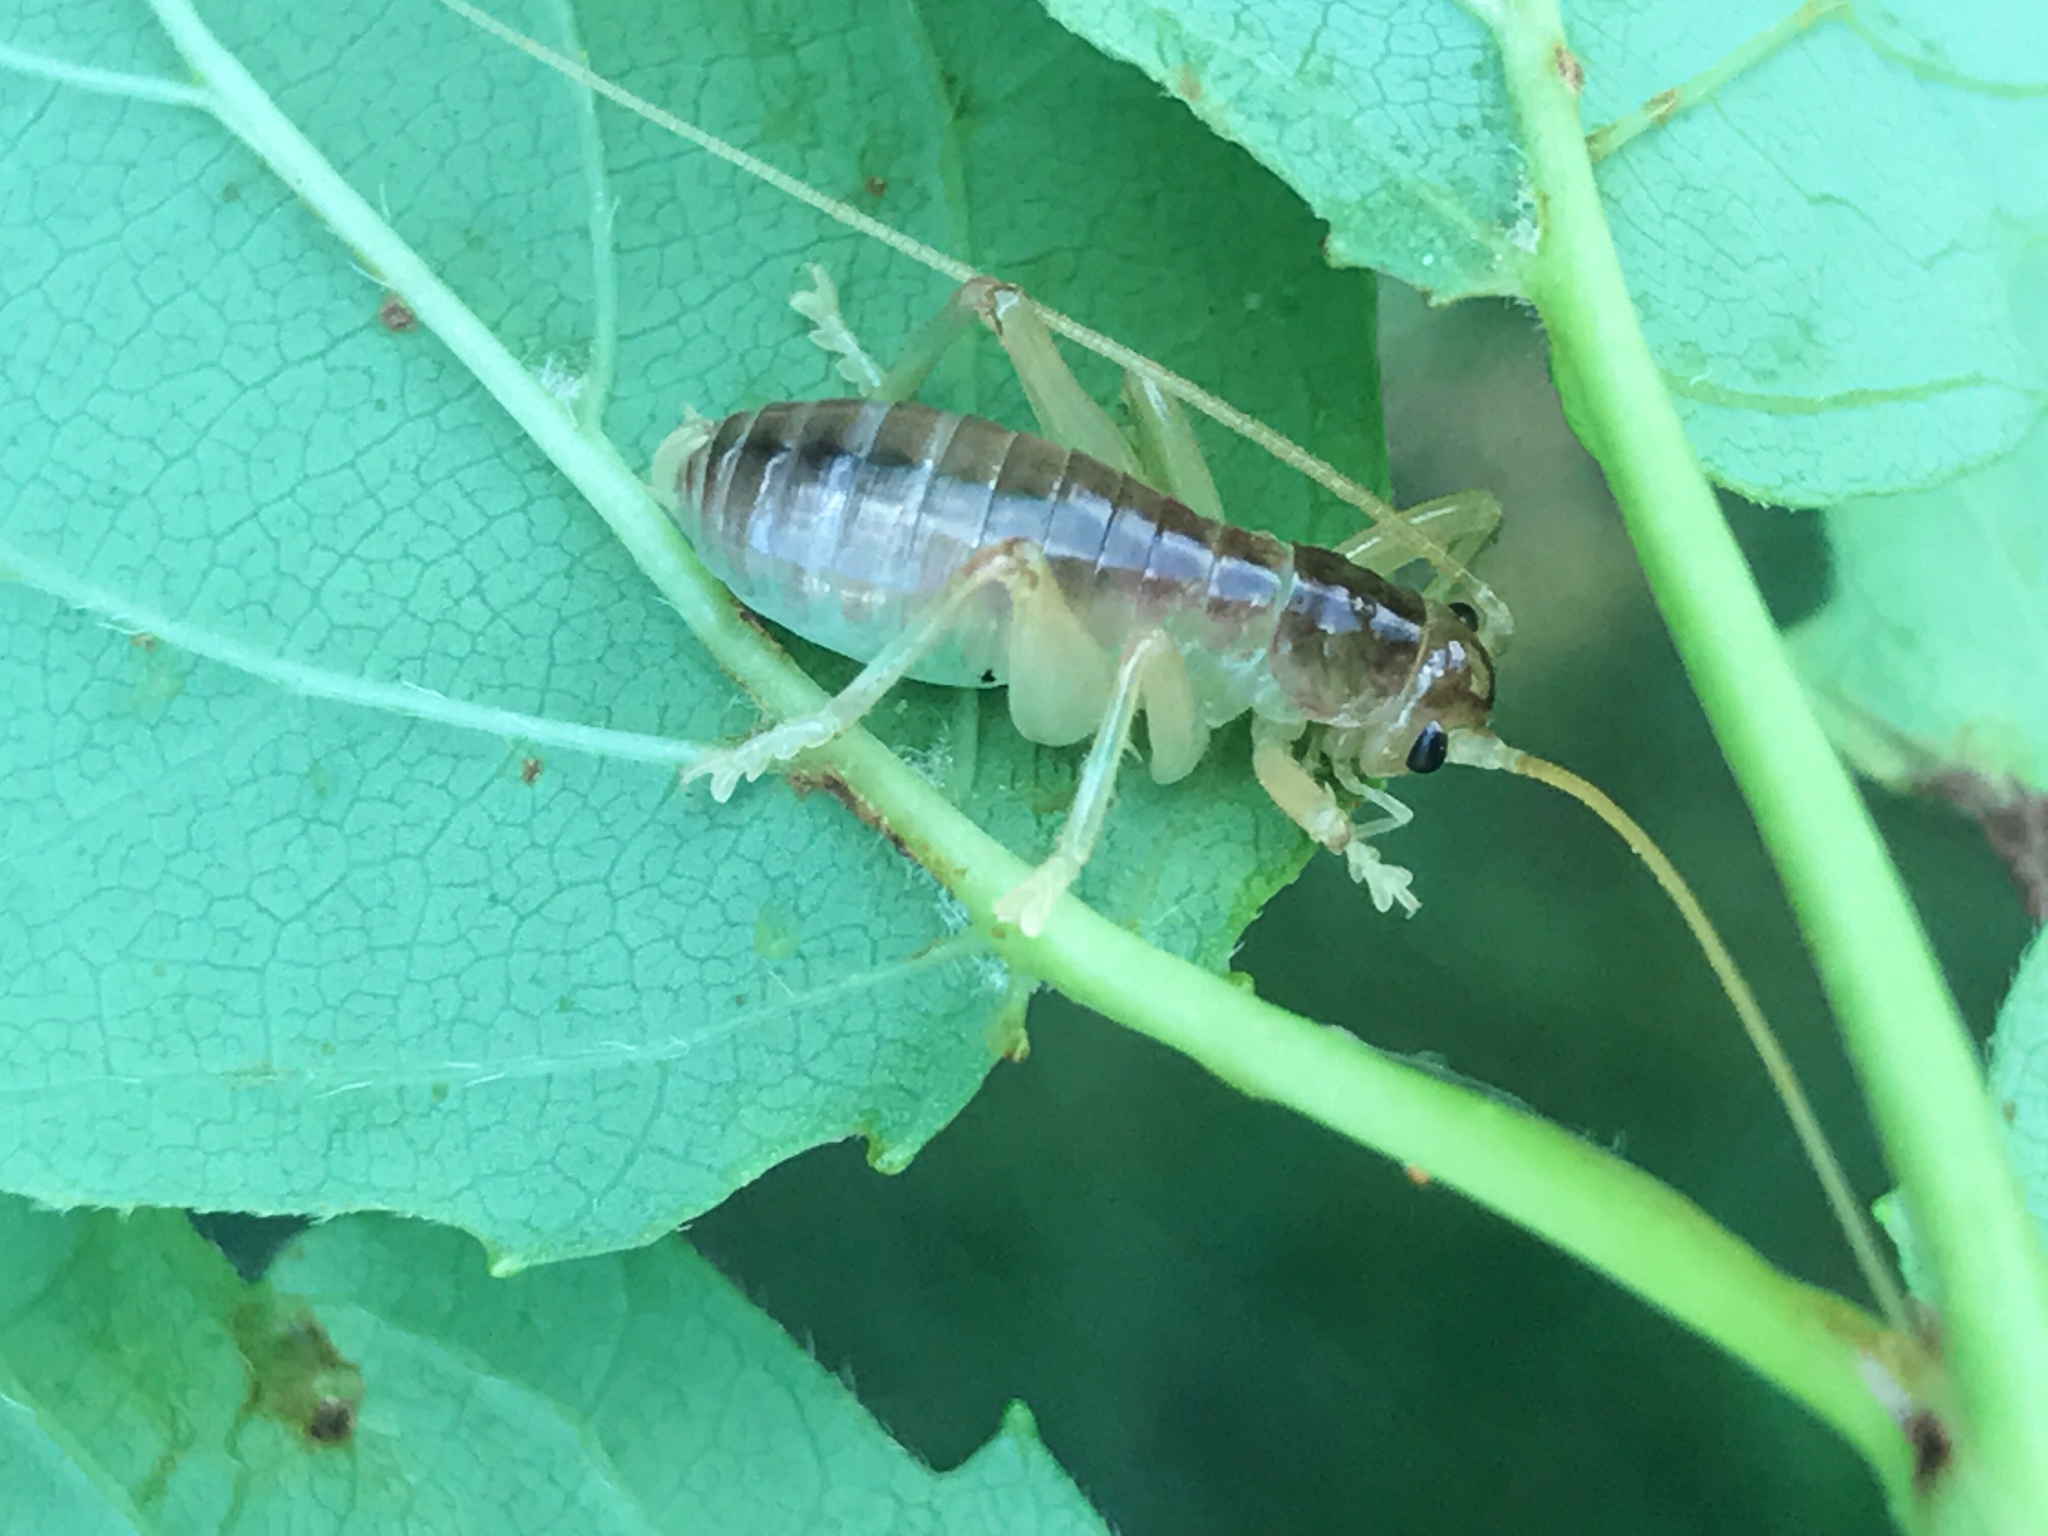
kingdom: Animalia
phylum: Arthropoda
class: Insecta
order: Orthoptera
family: Gryllacrididae
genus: Camptonotus
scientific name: Camptonotus carolinensis
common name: Carolina leaf-roller
